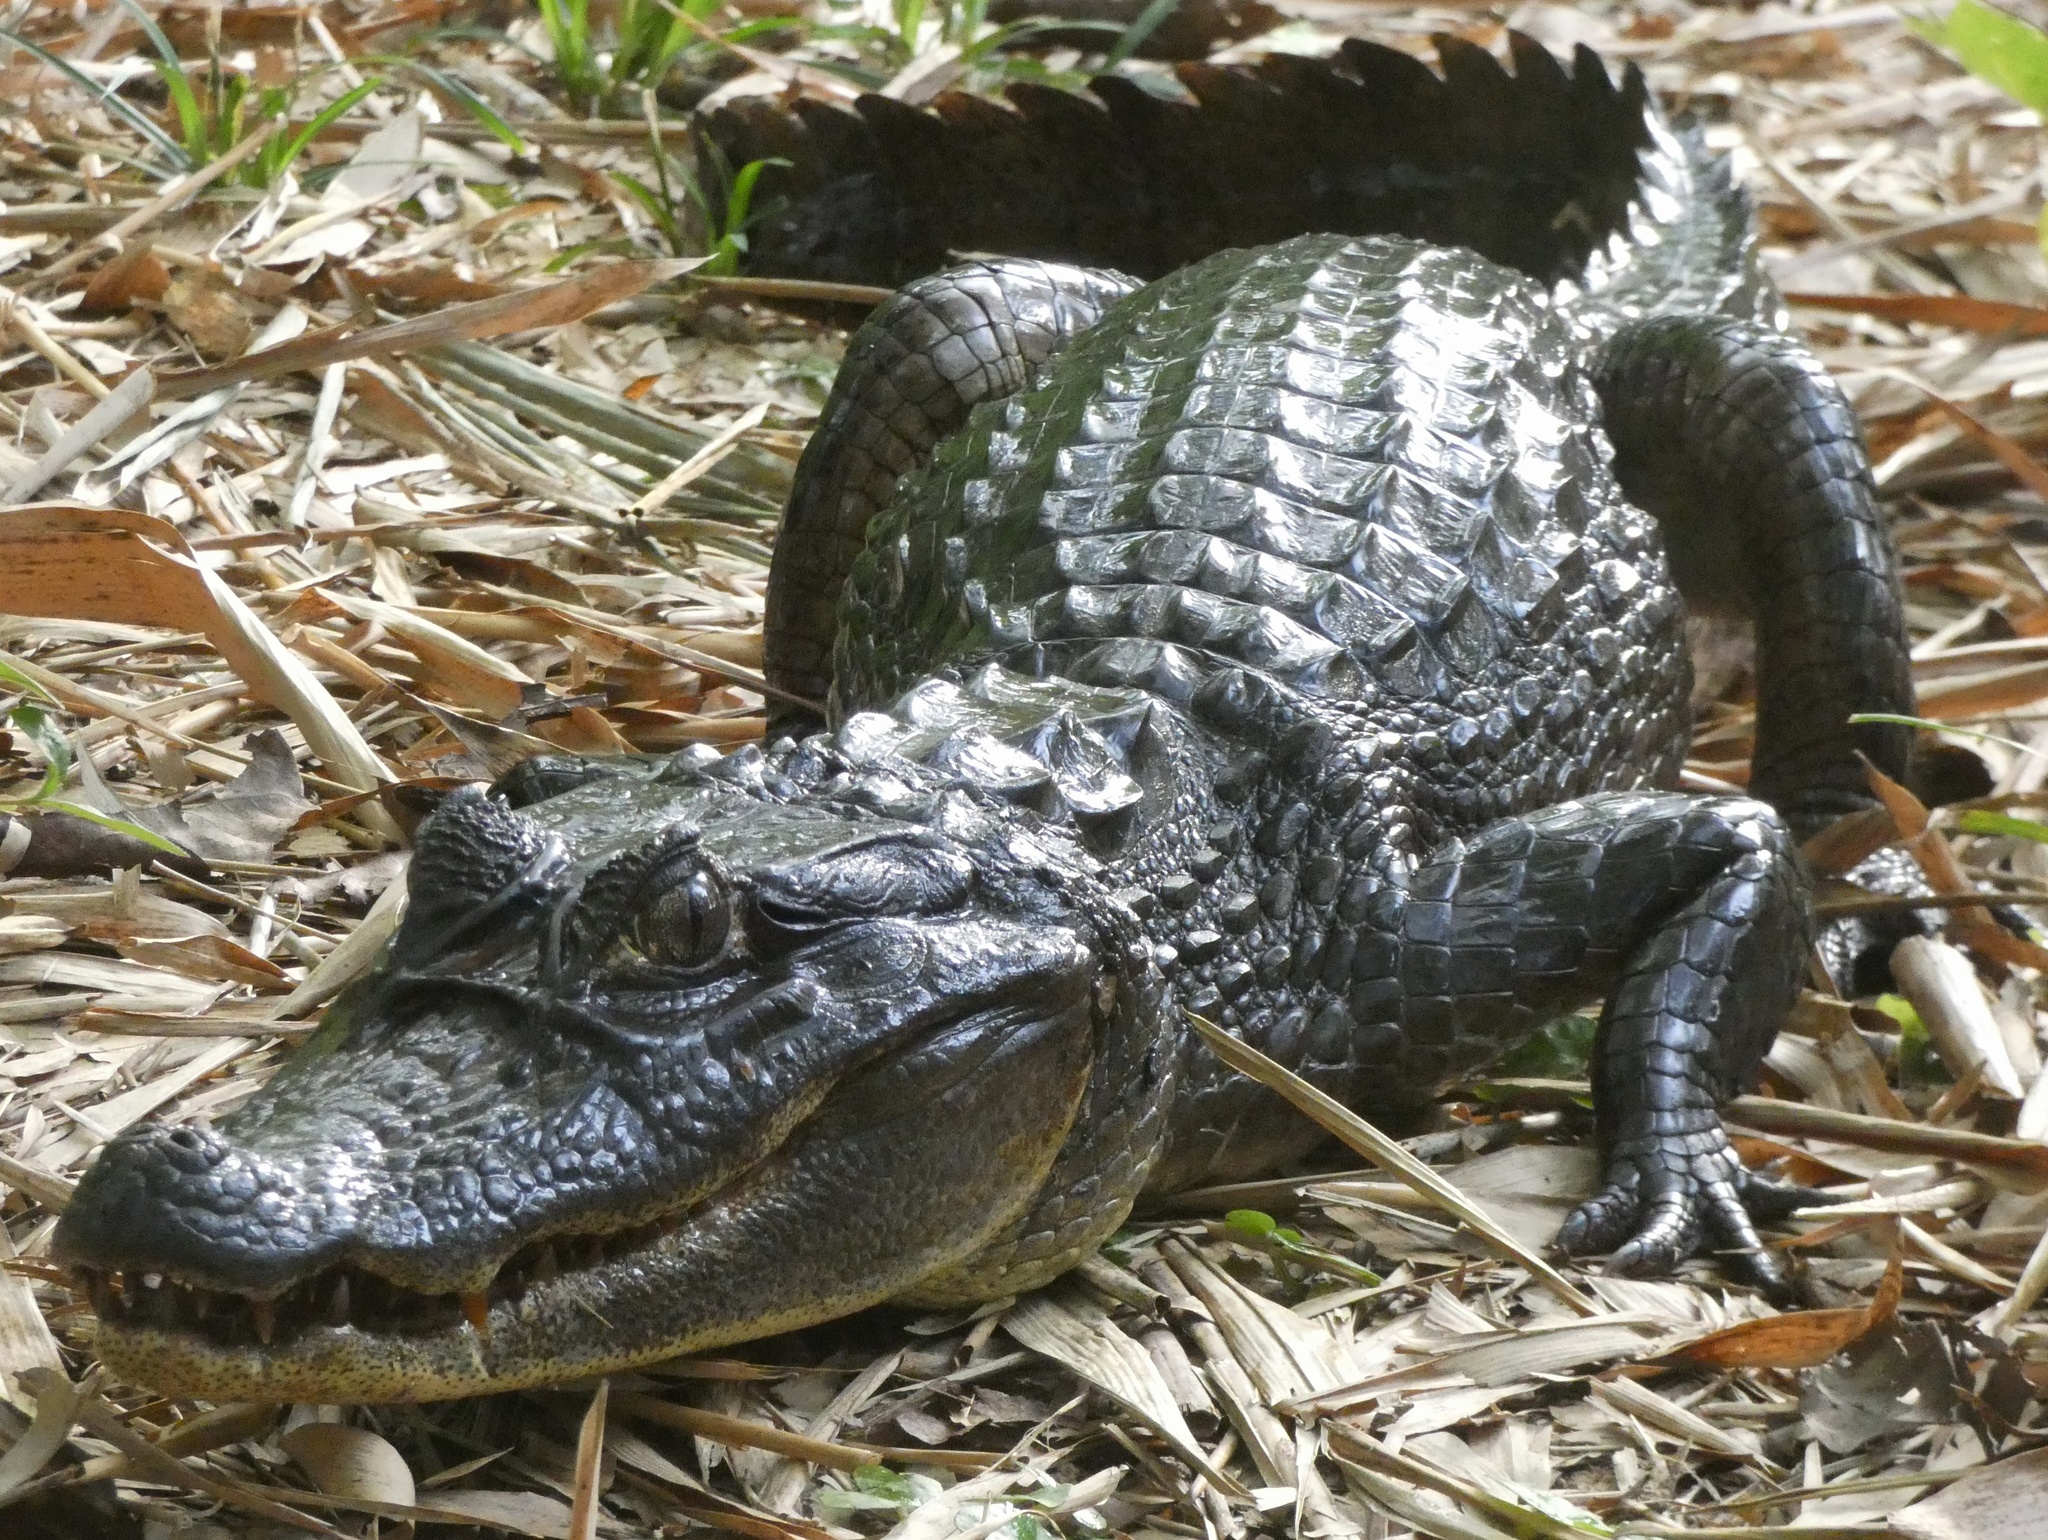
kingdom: Animalia
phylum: Chordata
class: Crocodylia
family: Alligatoridae
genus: Caiman
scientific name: Caiman crocodilus
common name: Common caiman
